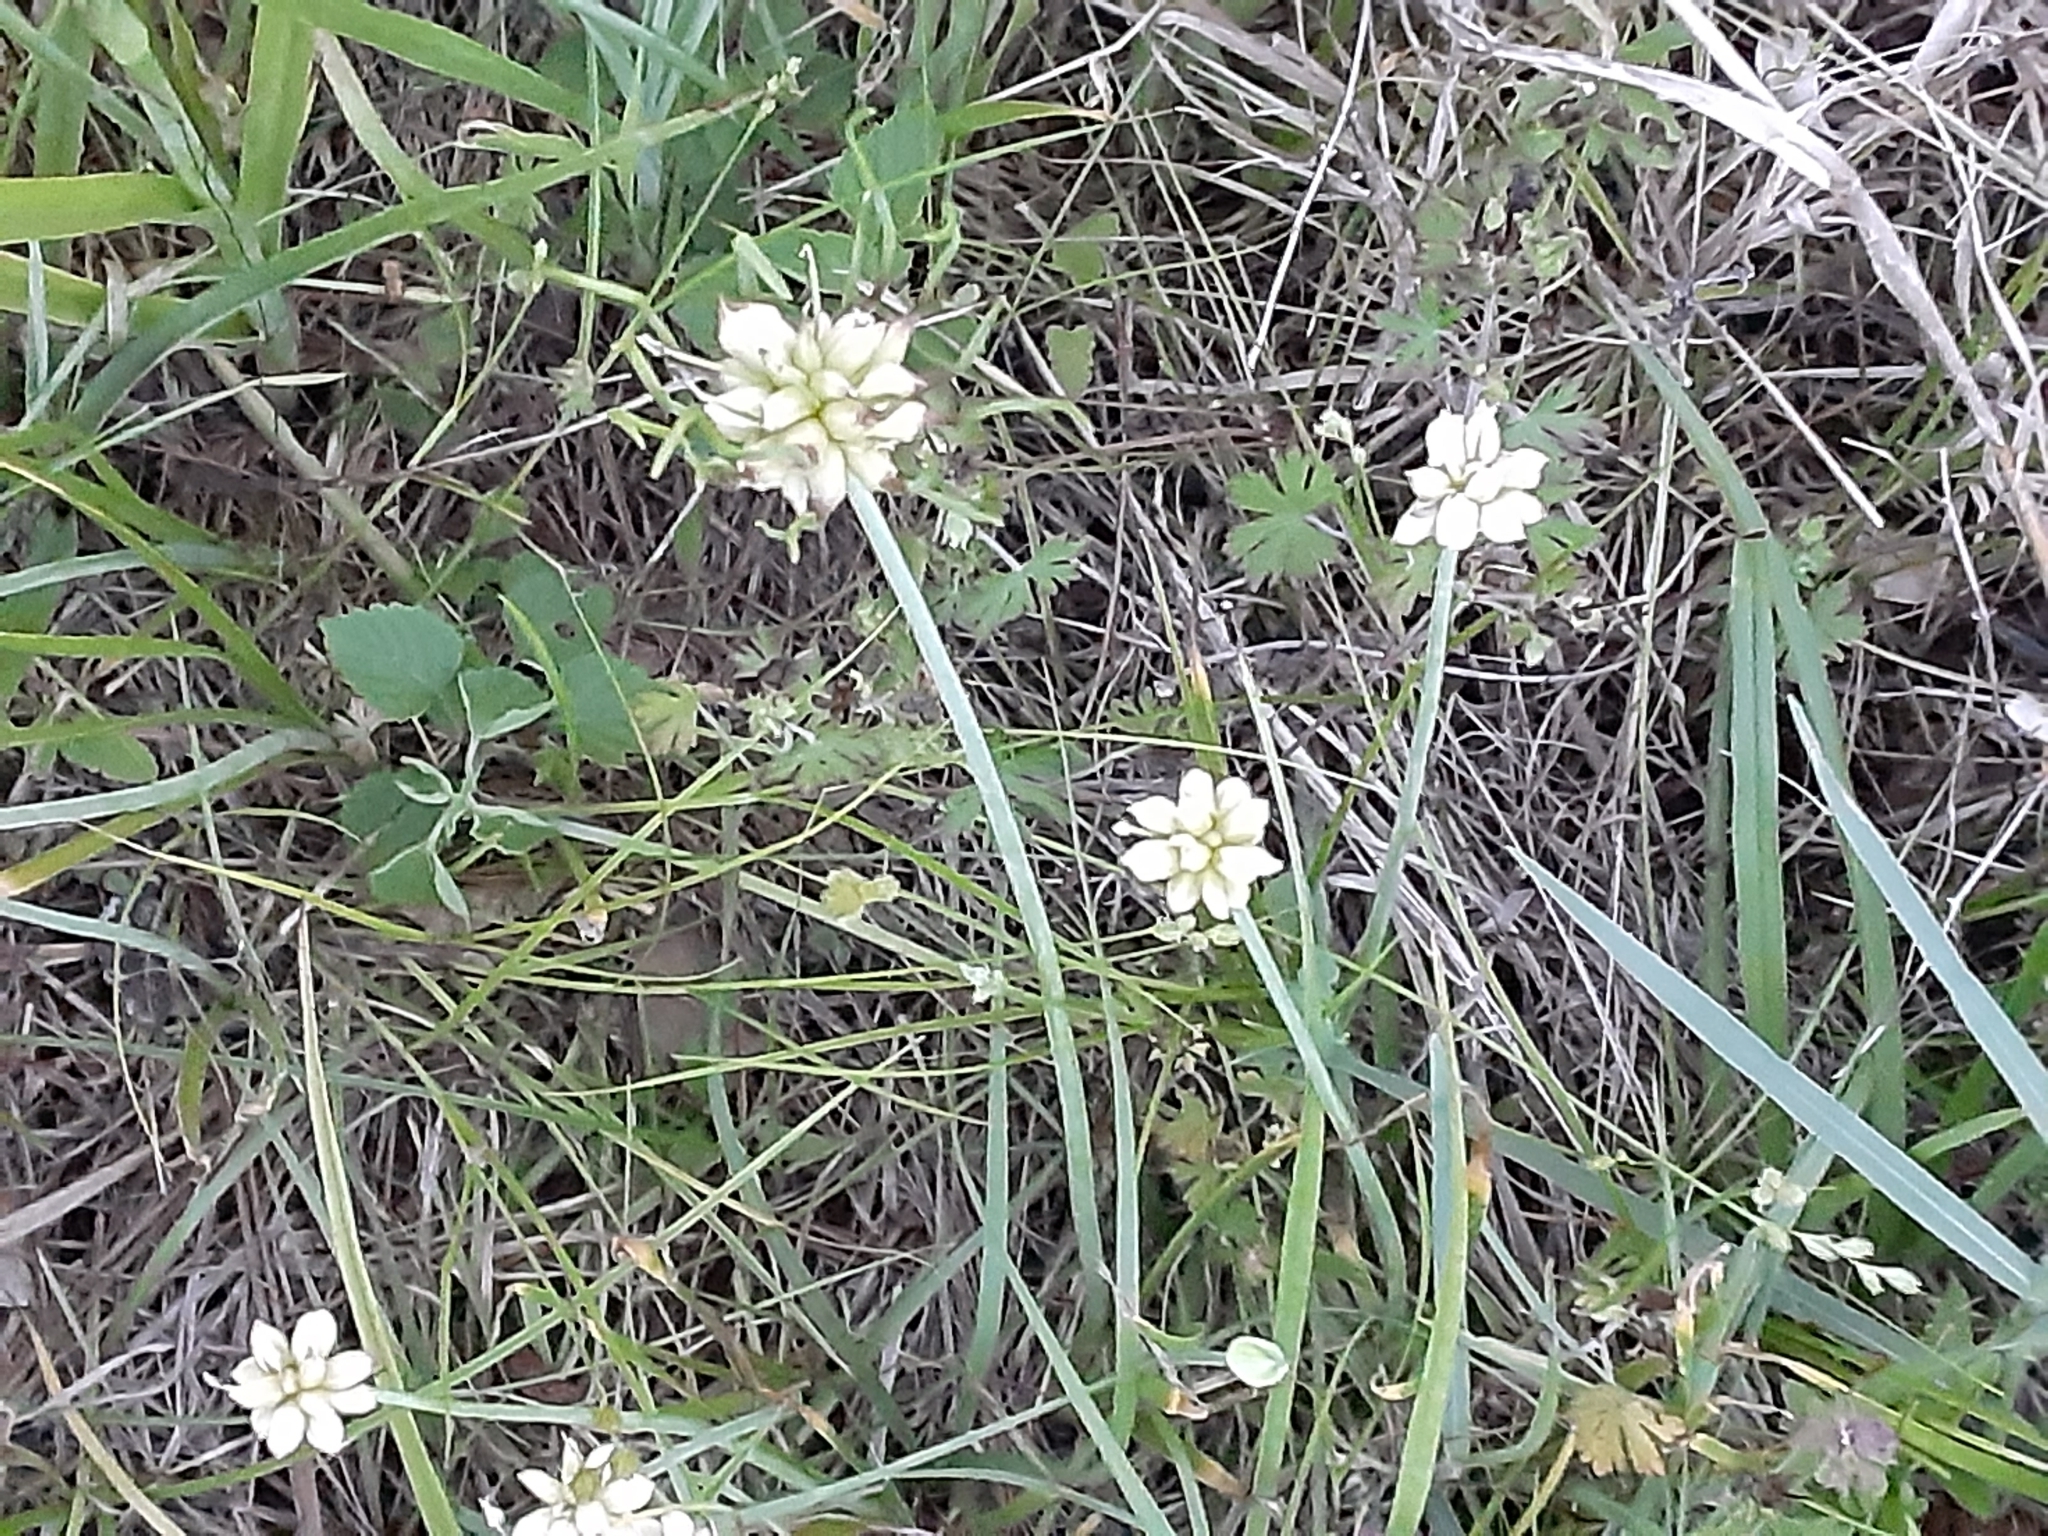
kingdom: Plantae
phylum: Tracheophyta
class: Liliopsida
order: Asparagales
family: Amaryllidaceae
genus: Allium
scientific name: Allium canadense
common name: Meadow garlic
